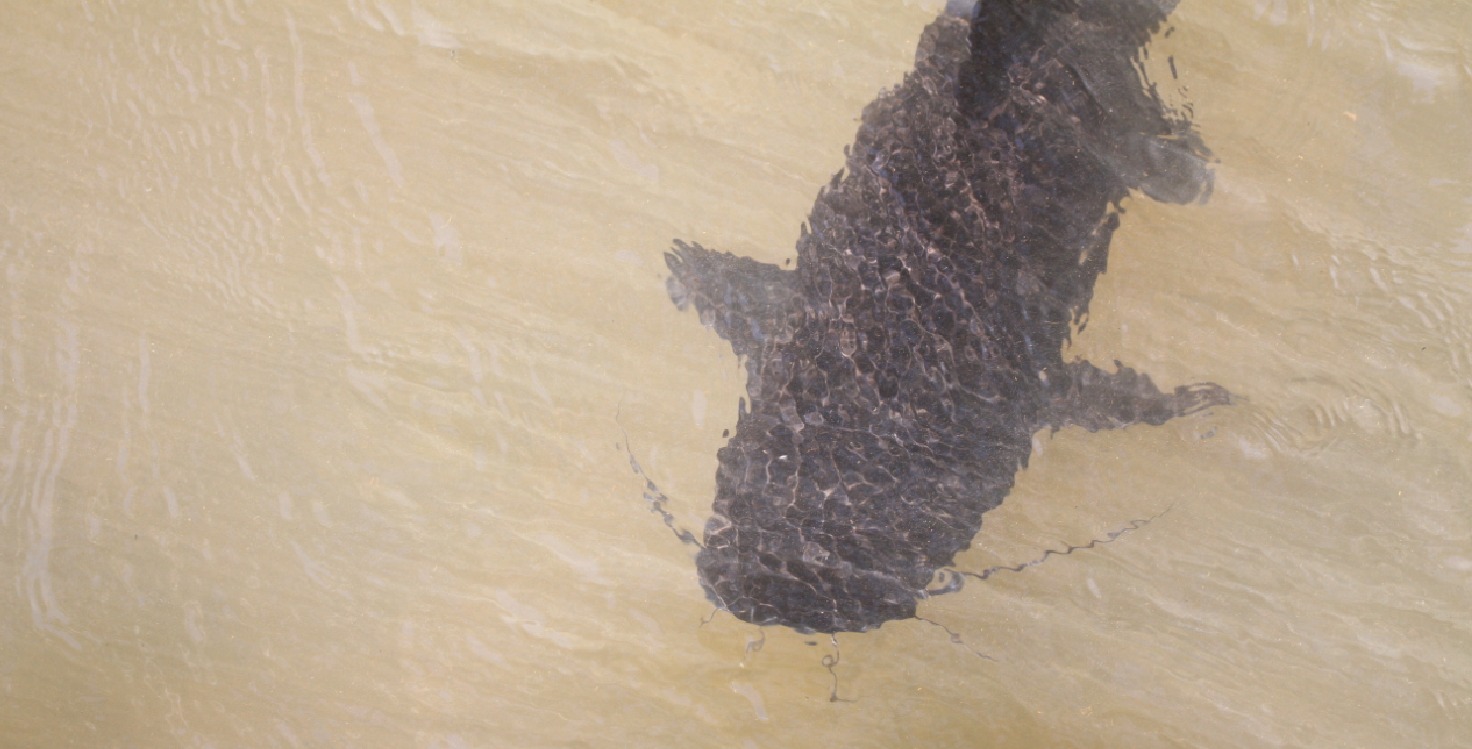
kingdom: Animalia
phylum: Chordata
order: Siluriformes
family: Pimelodidae
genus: Steindachneridion
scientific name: Steindachneridion melanodermatum
